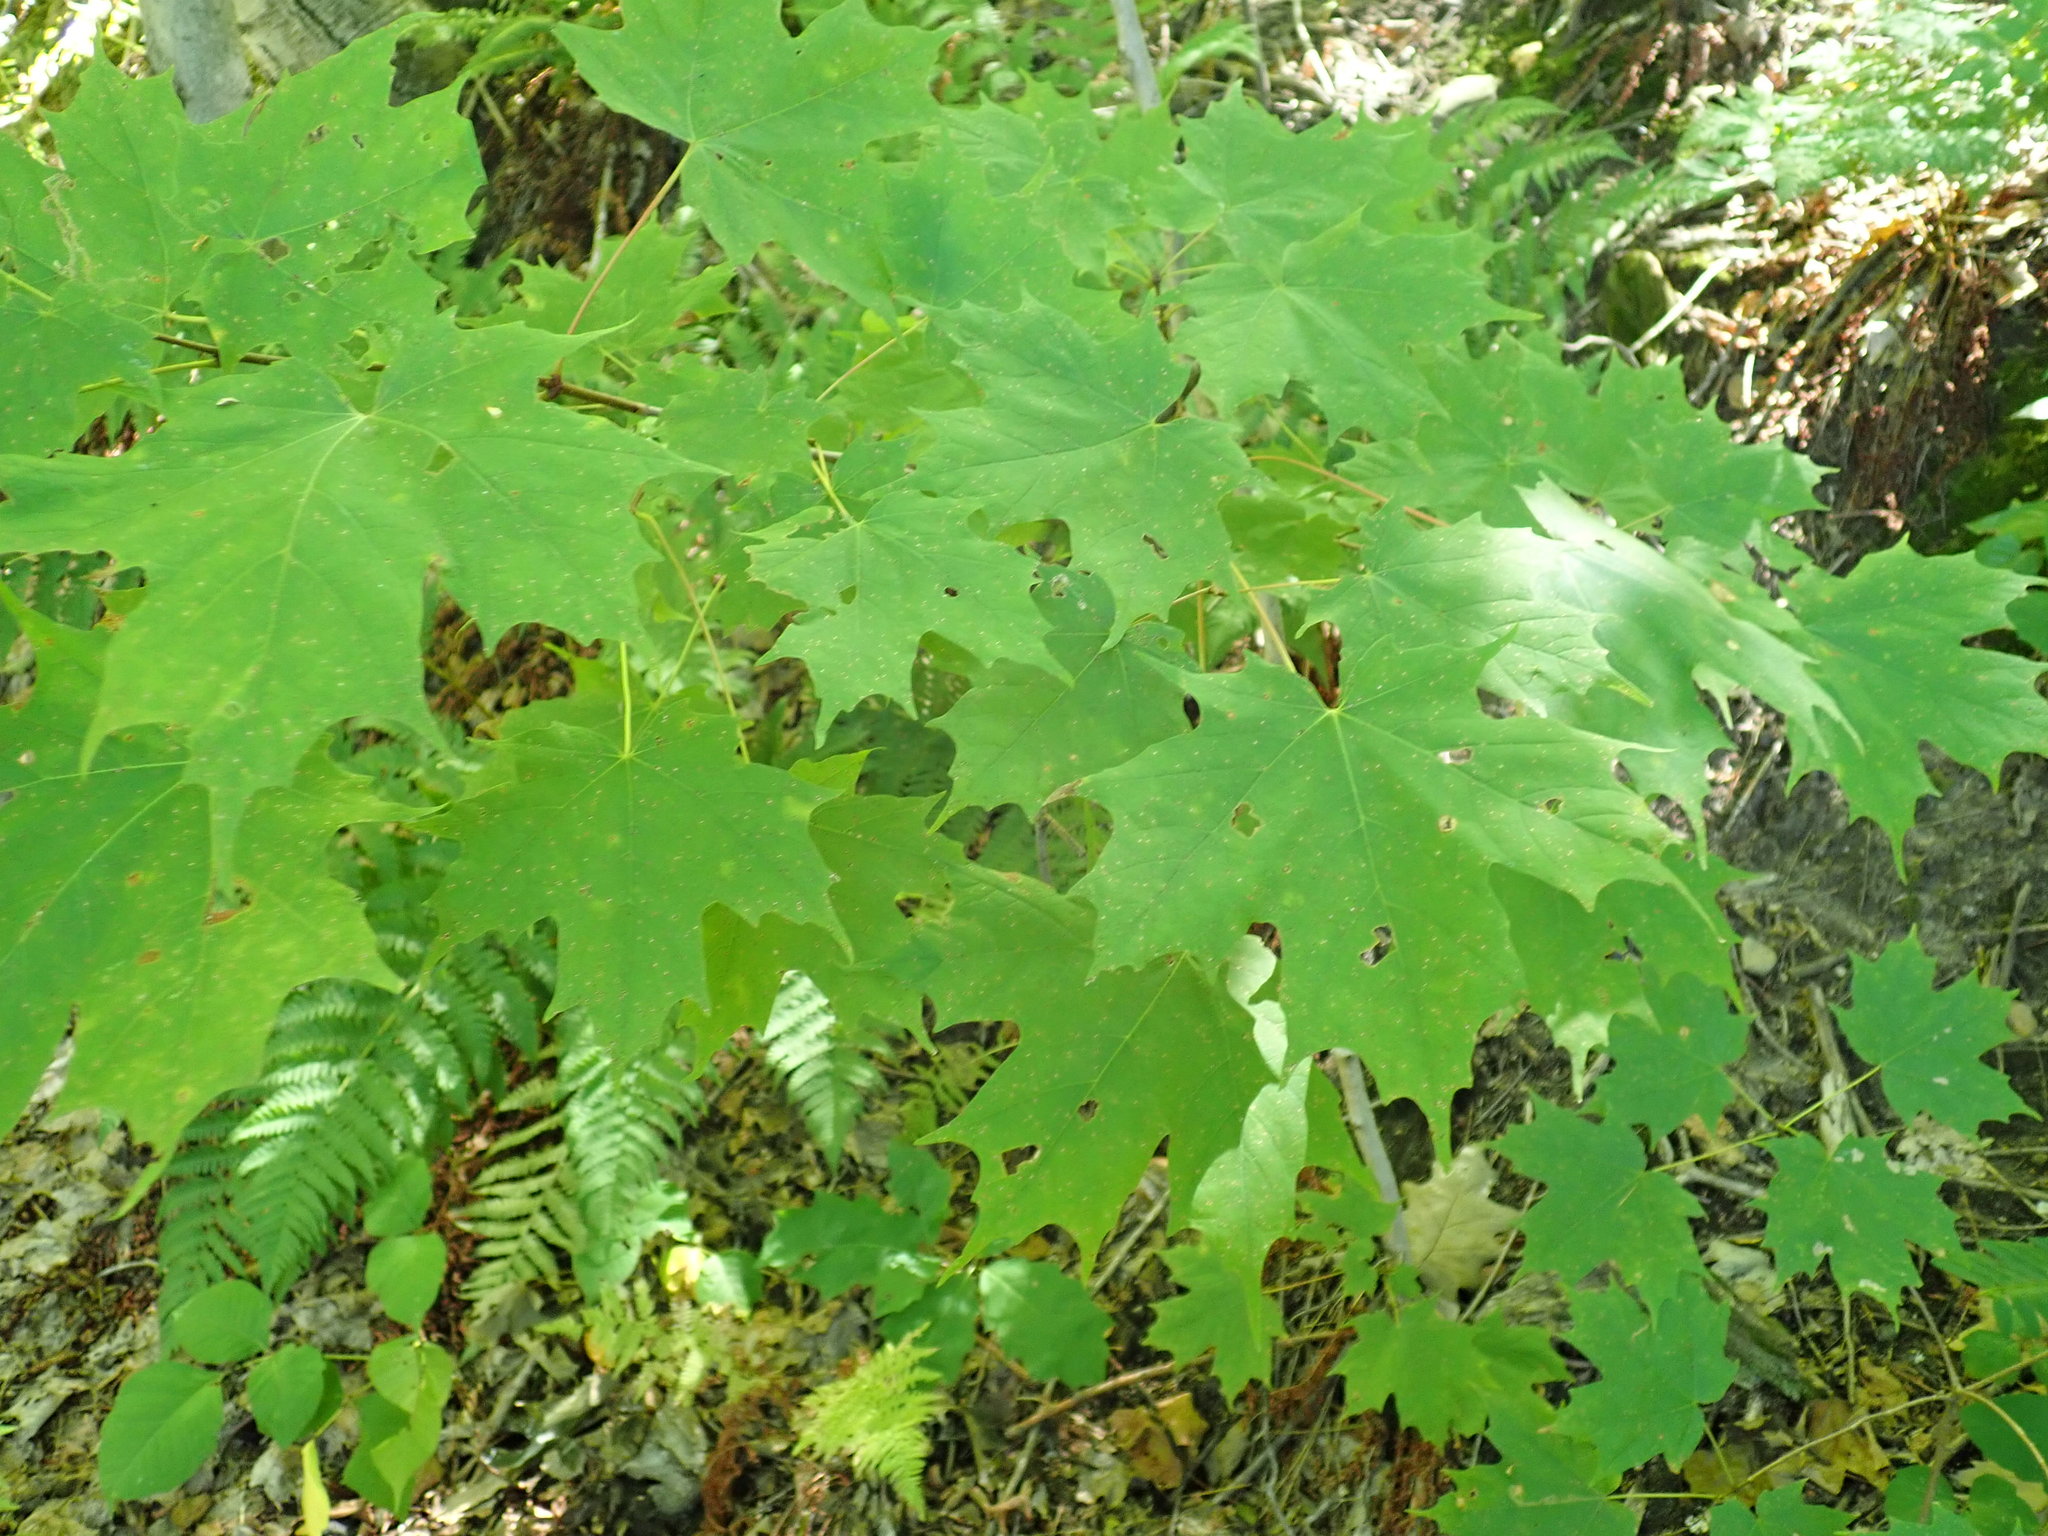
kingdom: Plantae
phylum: Tracheophyta
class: Magnoliopsida
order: Sapindales
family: Sapindaceae
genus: Acer
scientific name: Acer saccharum
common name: Sugar maple
